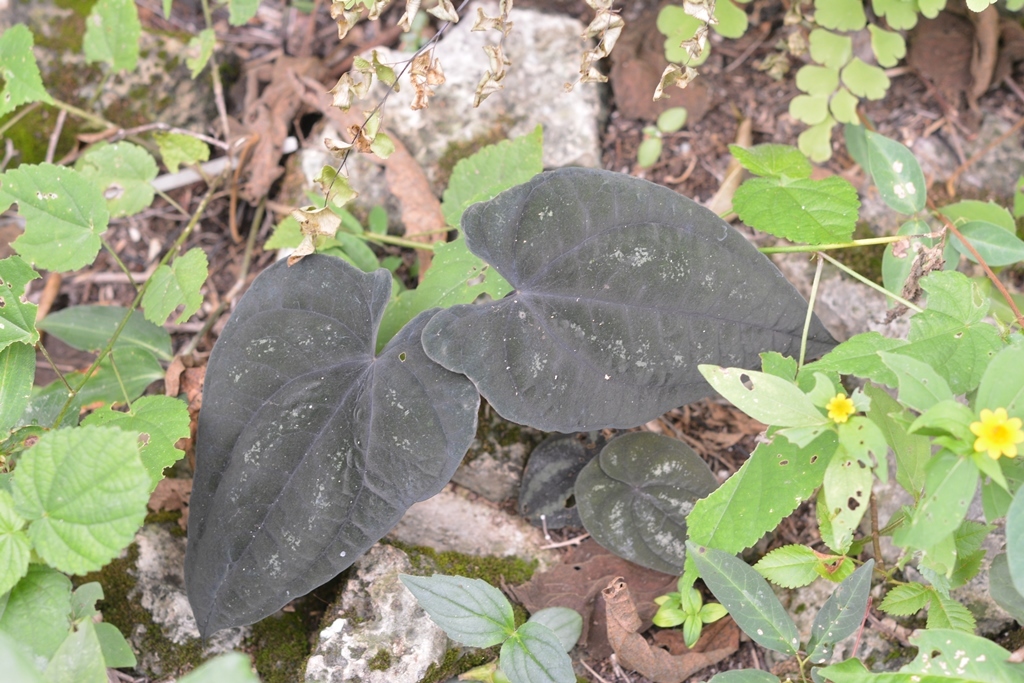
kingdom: Plantae
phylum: Tracheophyta
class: Liliopsida
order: Dioscoreales
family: Dioscoreaceae
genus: Dioscorea
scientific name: Dioscorea cyanisticta
